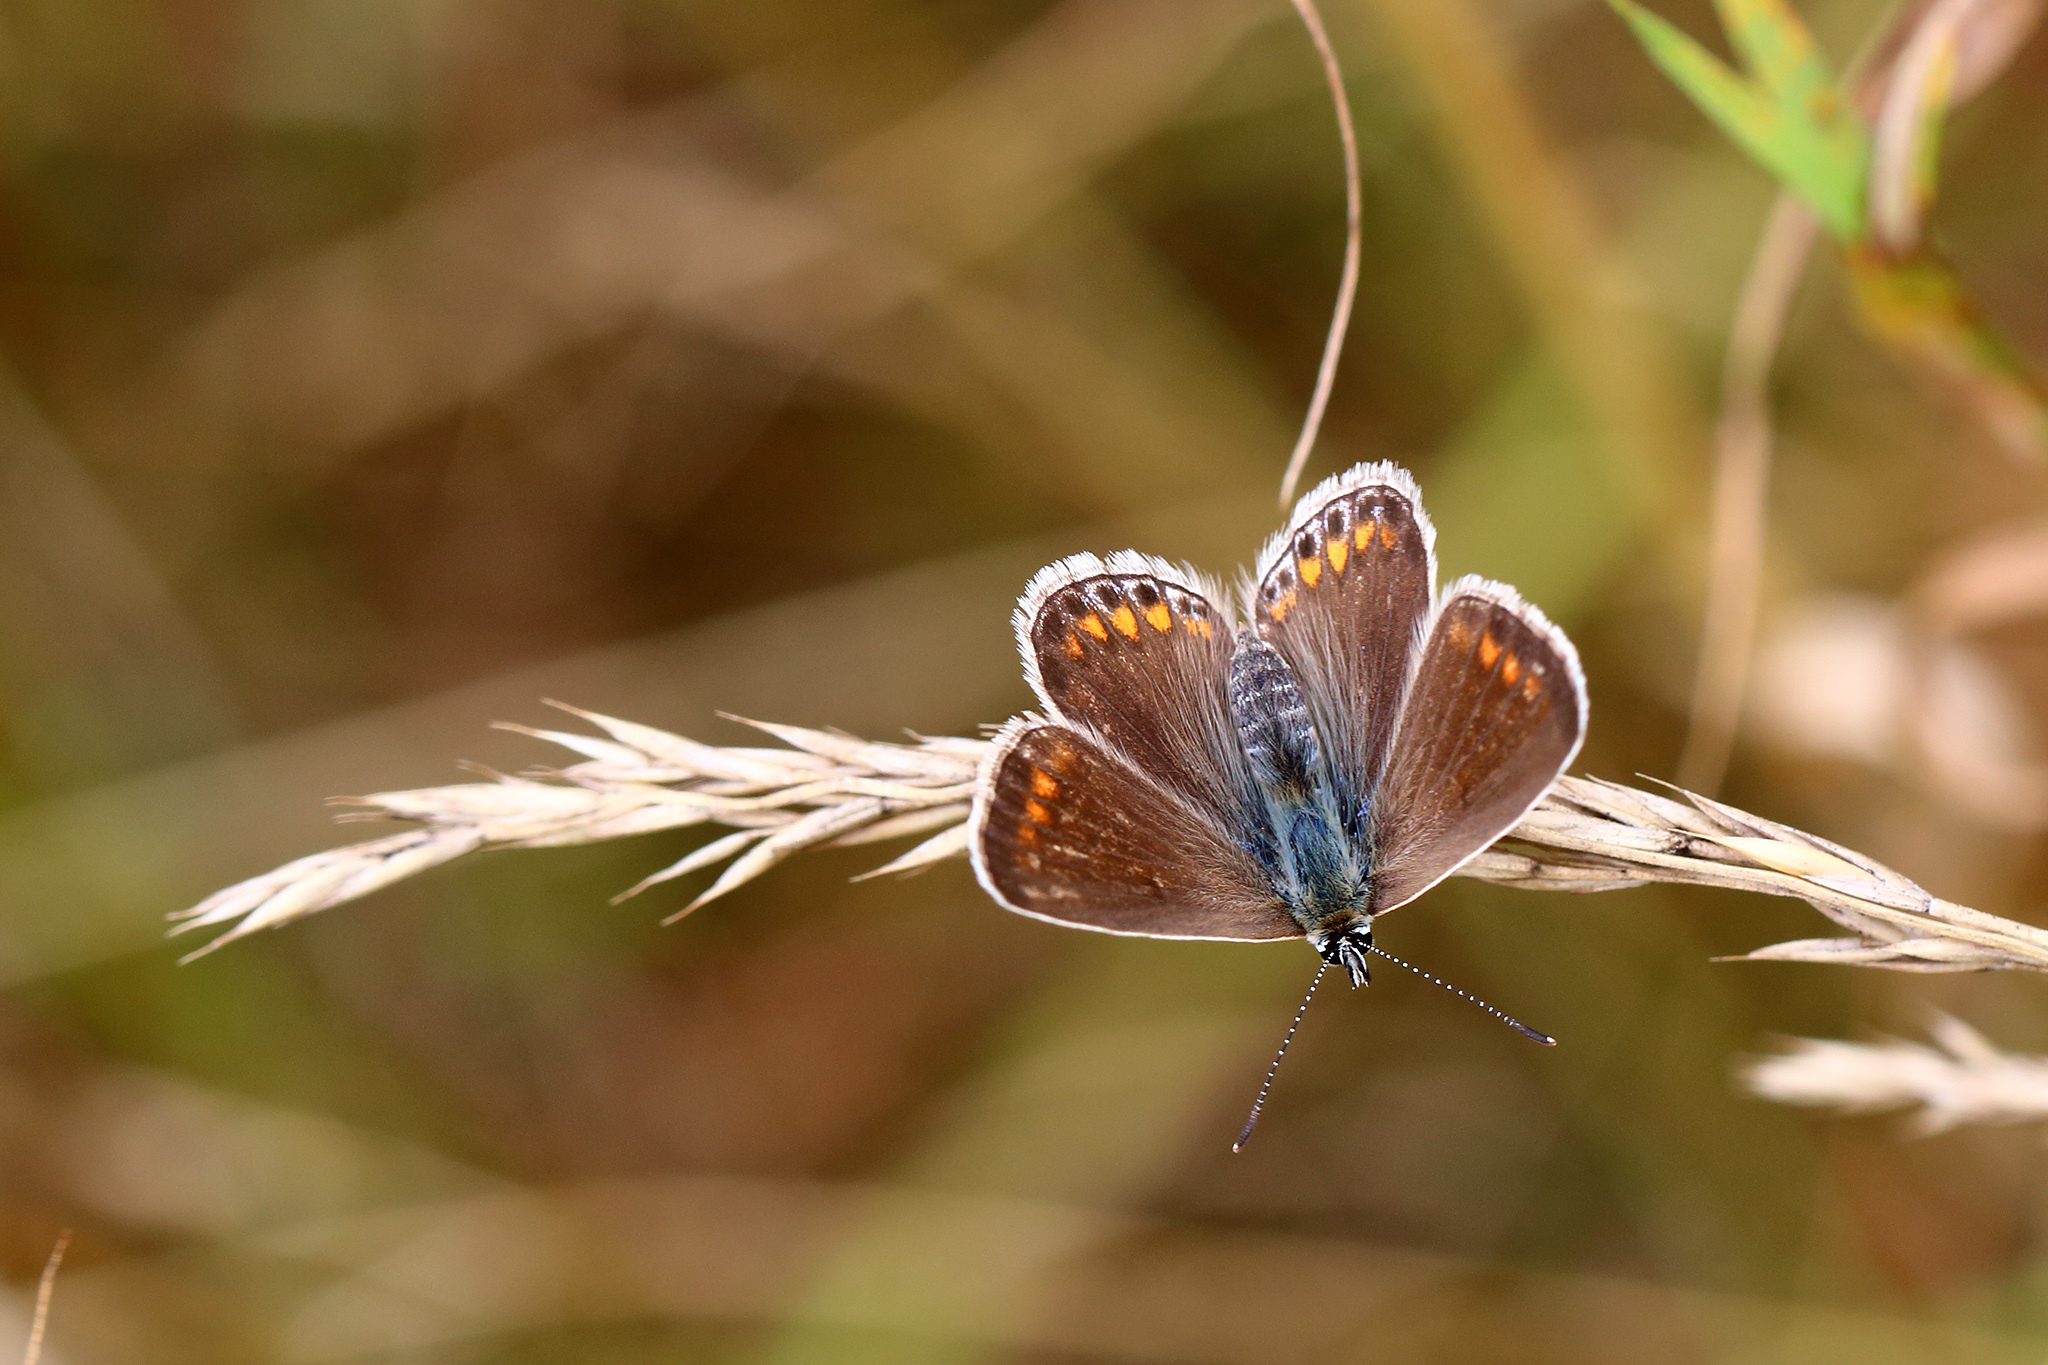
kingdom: Animalia
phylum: Arthropoda
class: Insecta
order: Lepidoptera
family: Lycaenidae
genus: Polyommatus
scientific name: Polyommatus icarus
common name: Common blue
